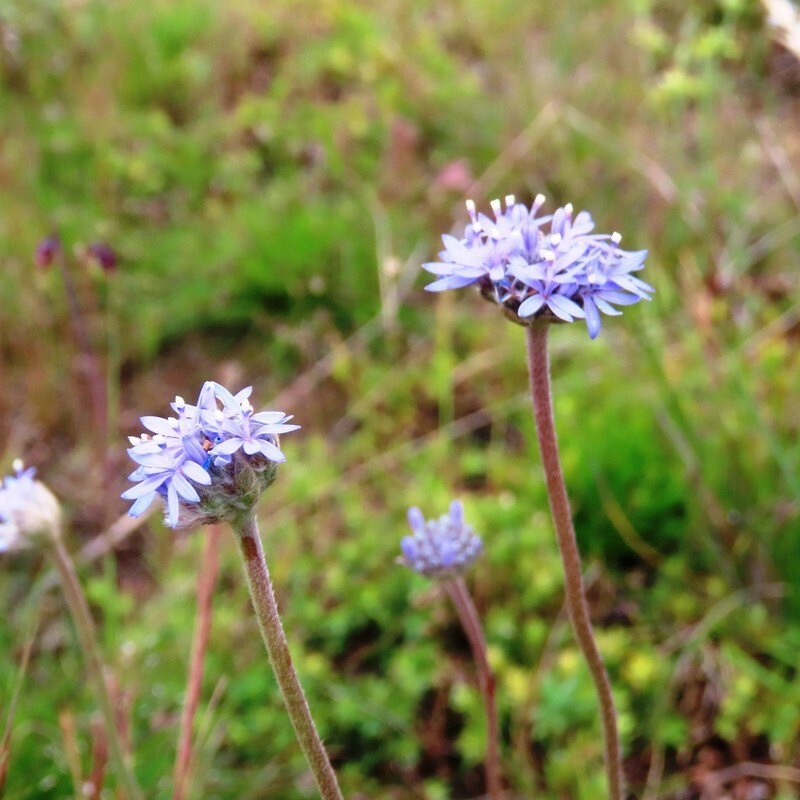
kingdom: Plantae
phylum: Tracheophyta
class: Magnoliopsida
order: Asterales
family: Goodeniaceae
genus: Brunonia
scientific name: Brunonia australis
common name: Blue pincushion
